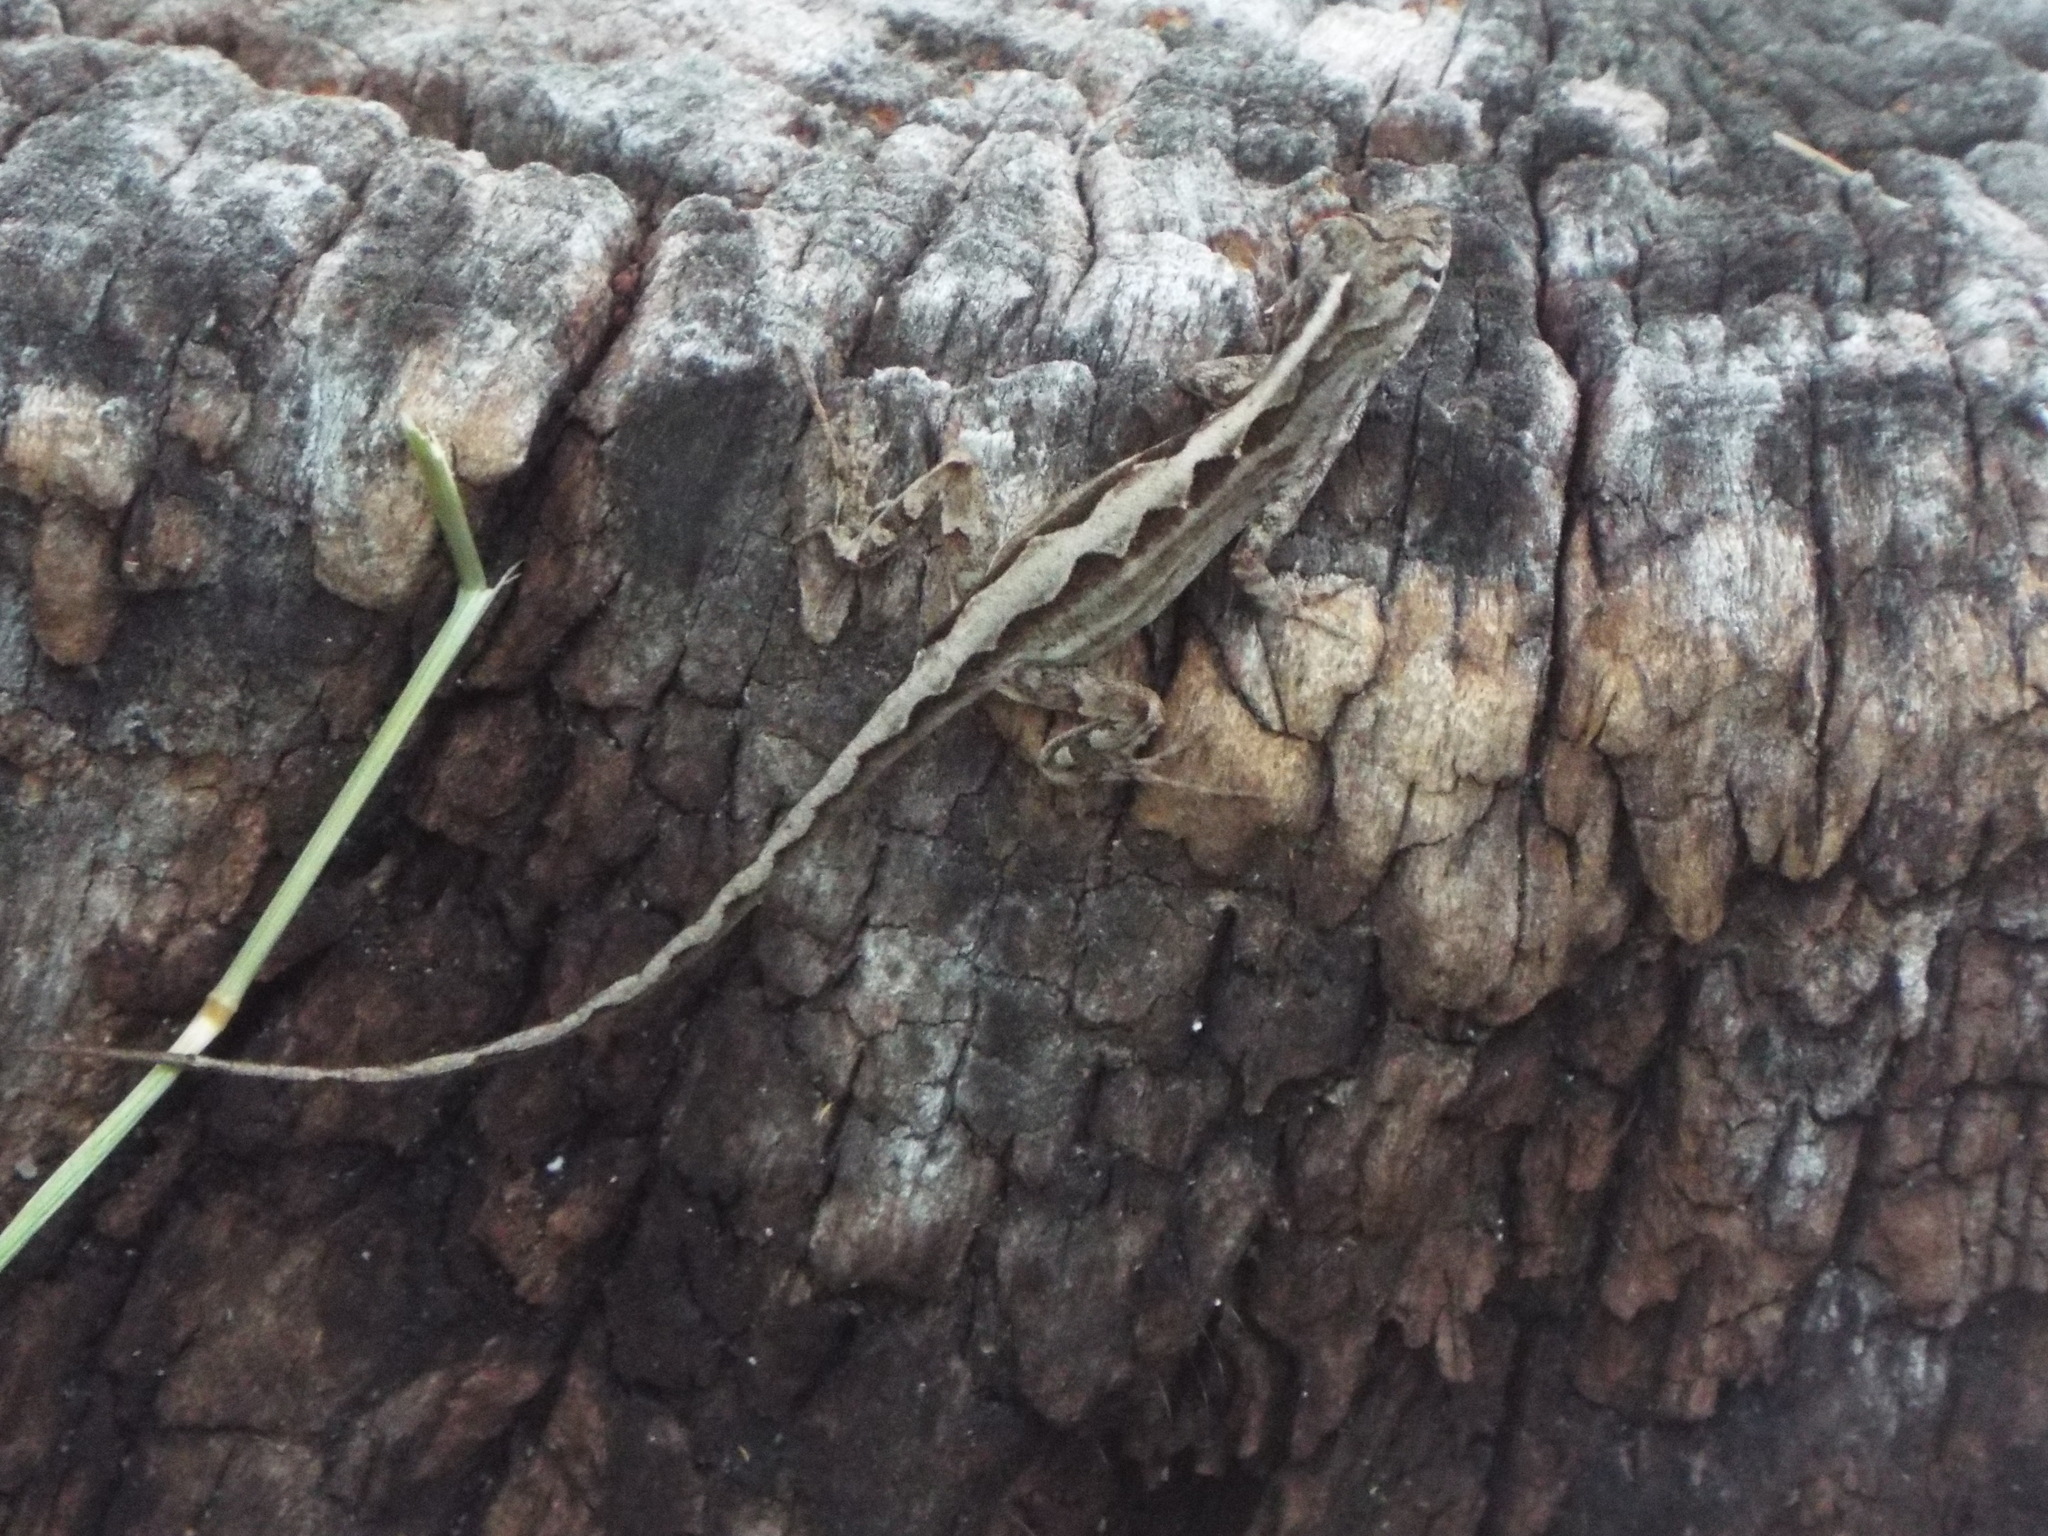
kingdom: Animalia
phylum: Chordata
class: Squamata
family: Dactyloidae
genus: Anolis
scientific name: Anolis sagrei
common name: Brown anole
